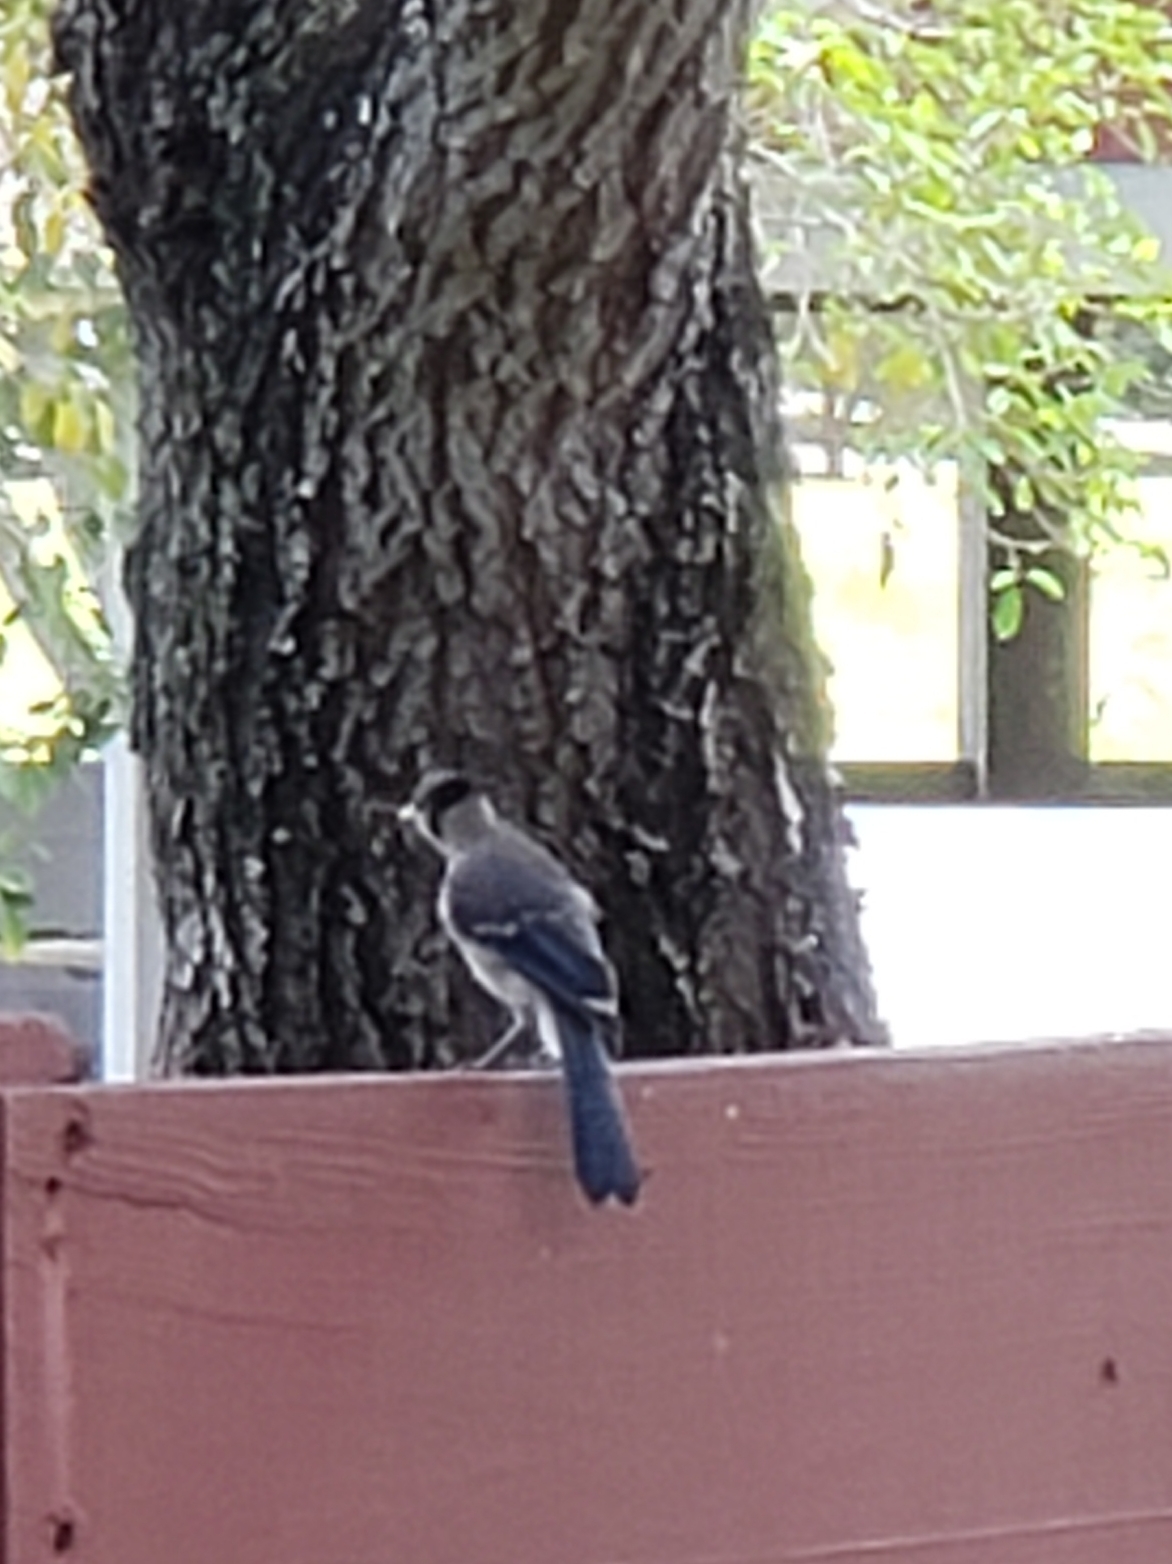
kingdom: Animalia
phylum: Chordata
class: Aves
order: Passeriformes
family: Corvidae
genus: Cyanocitta
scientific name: Cyanocitta cristata
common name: Blue jay
